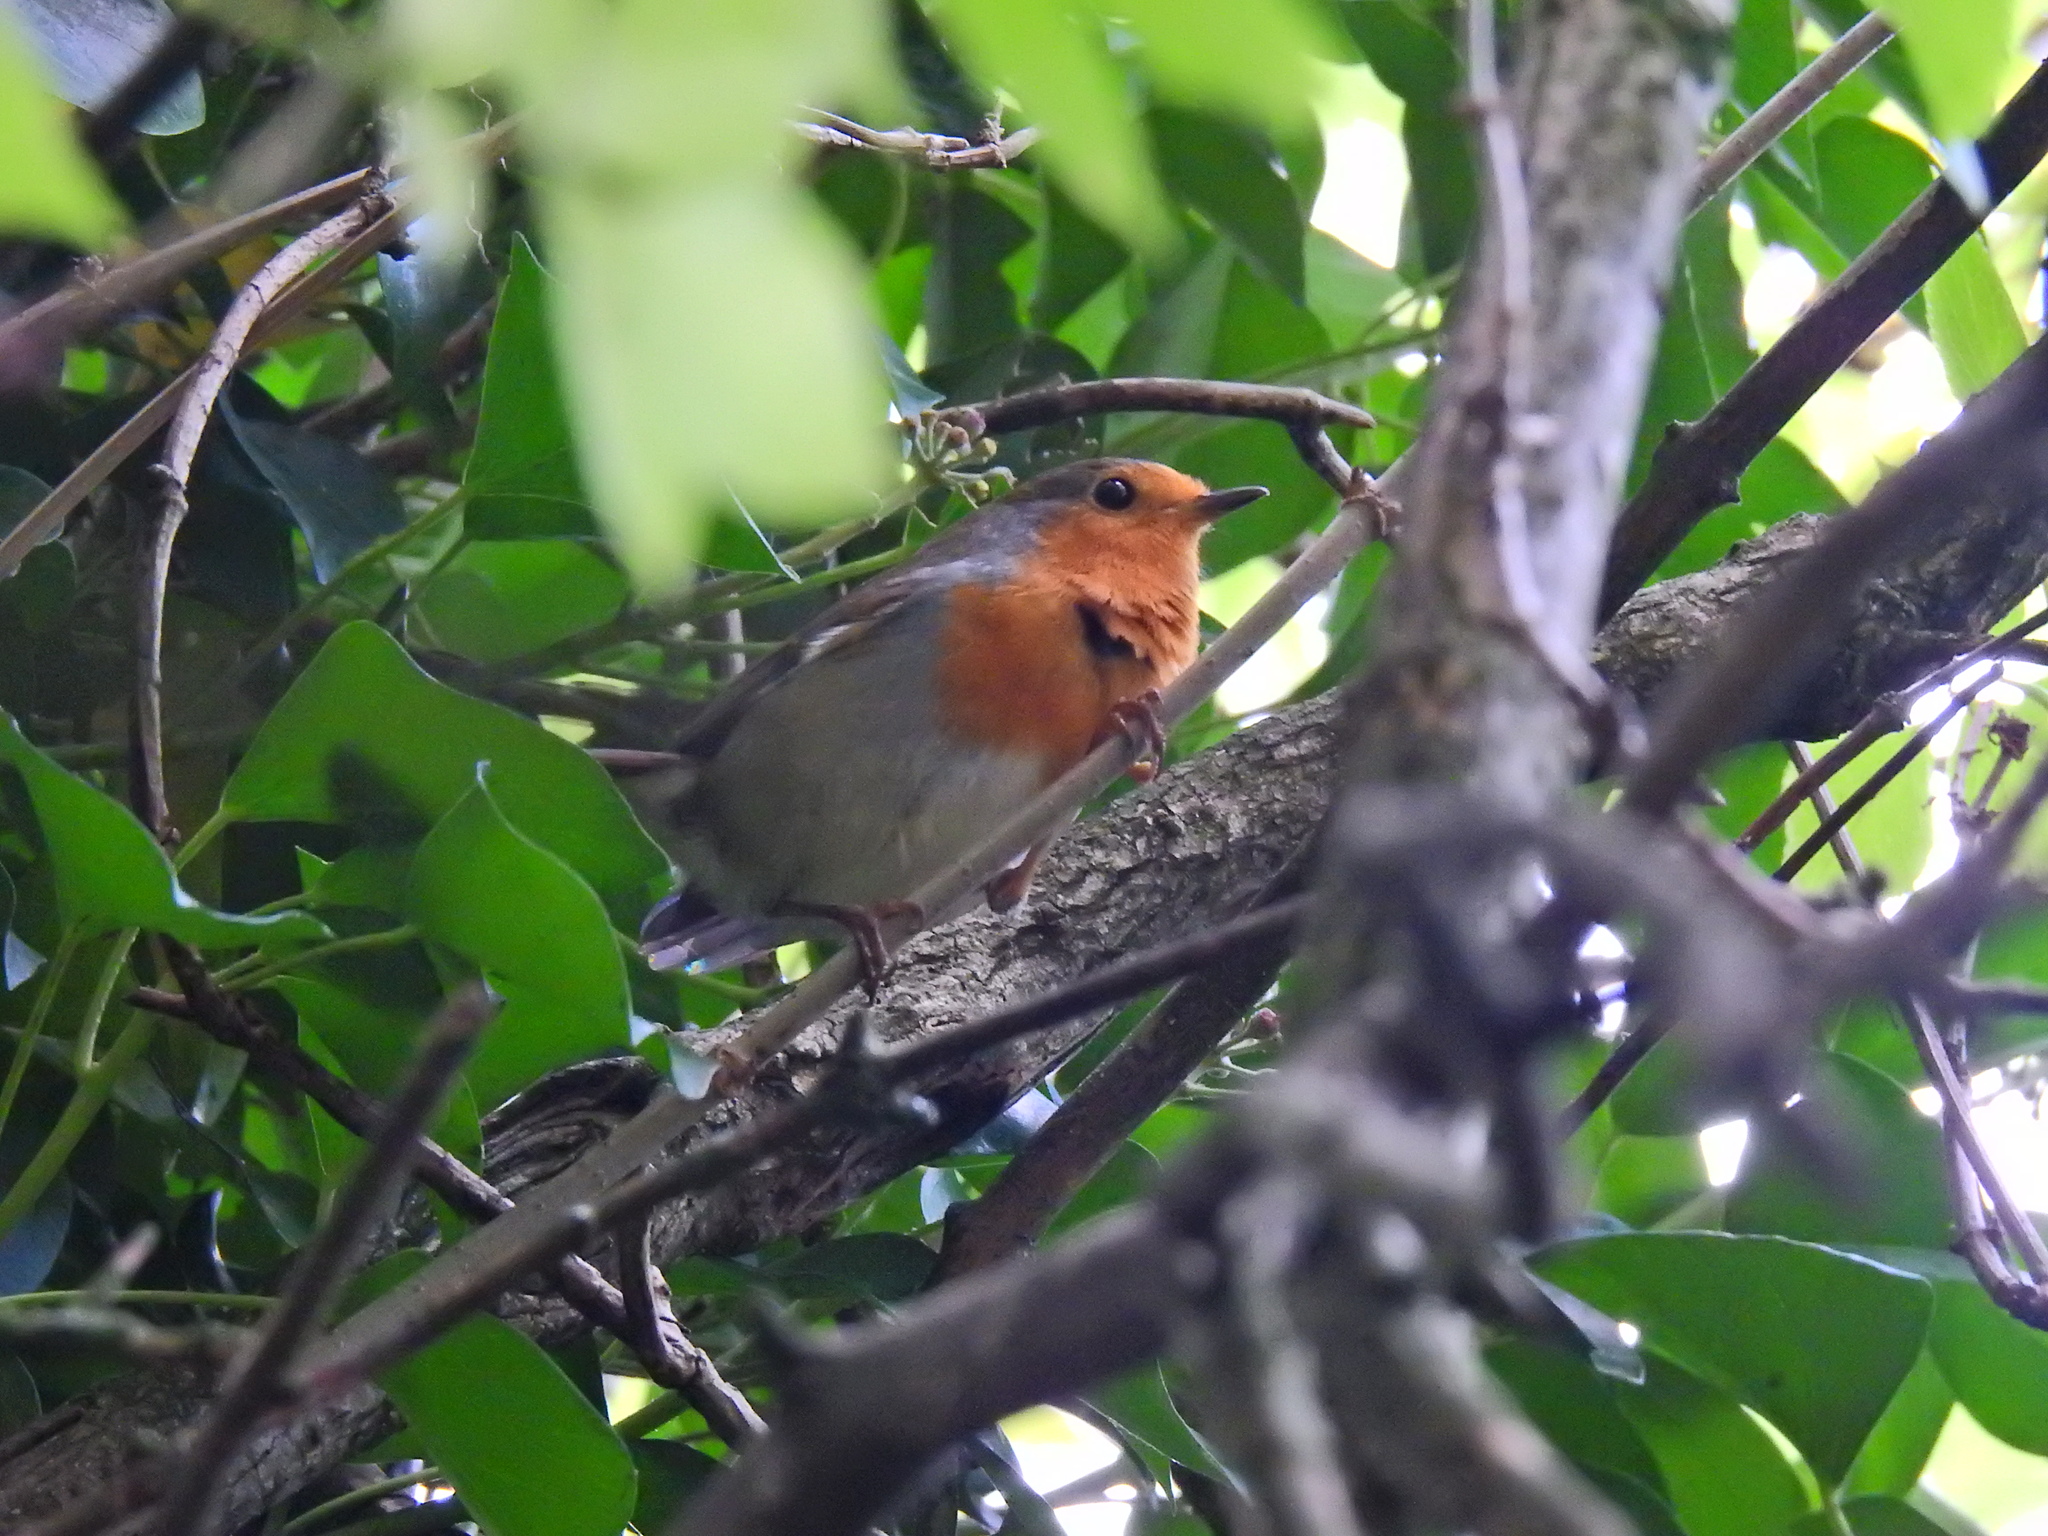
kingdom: Animalia
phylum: Chordata
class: Aves
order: Passeriformes
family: Muscicapidae
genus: Erithacus
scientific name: Erithacus rubecula
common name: European robin
